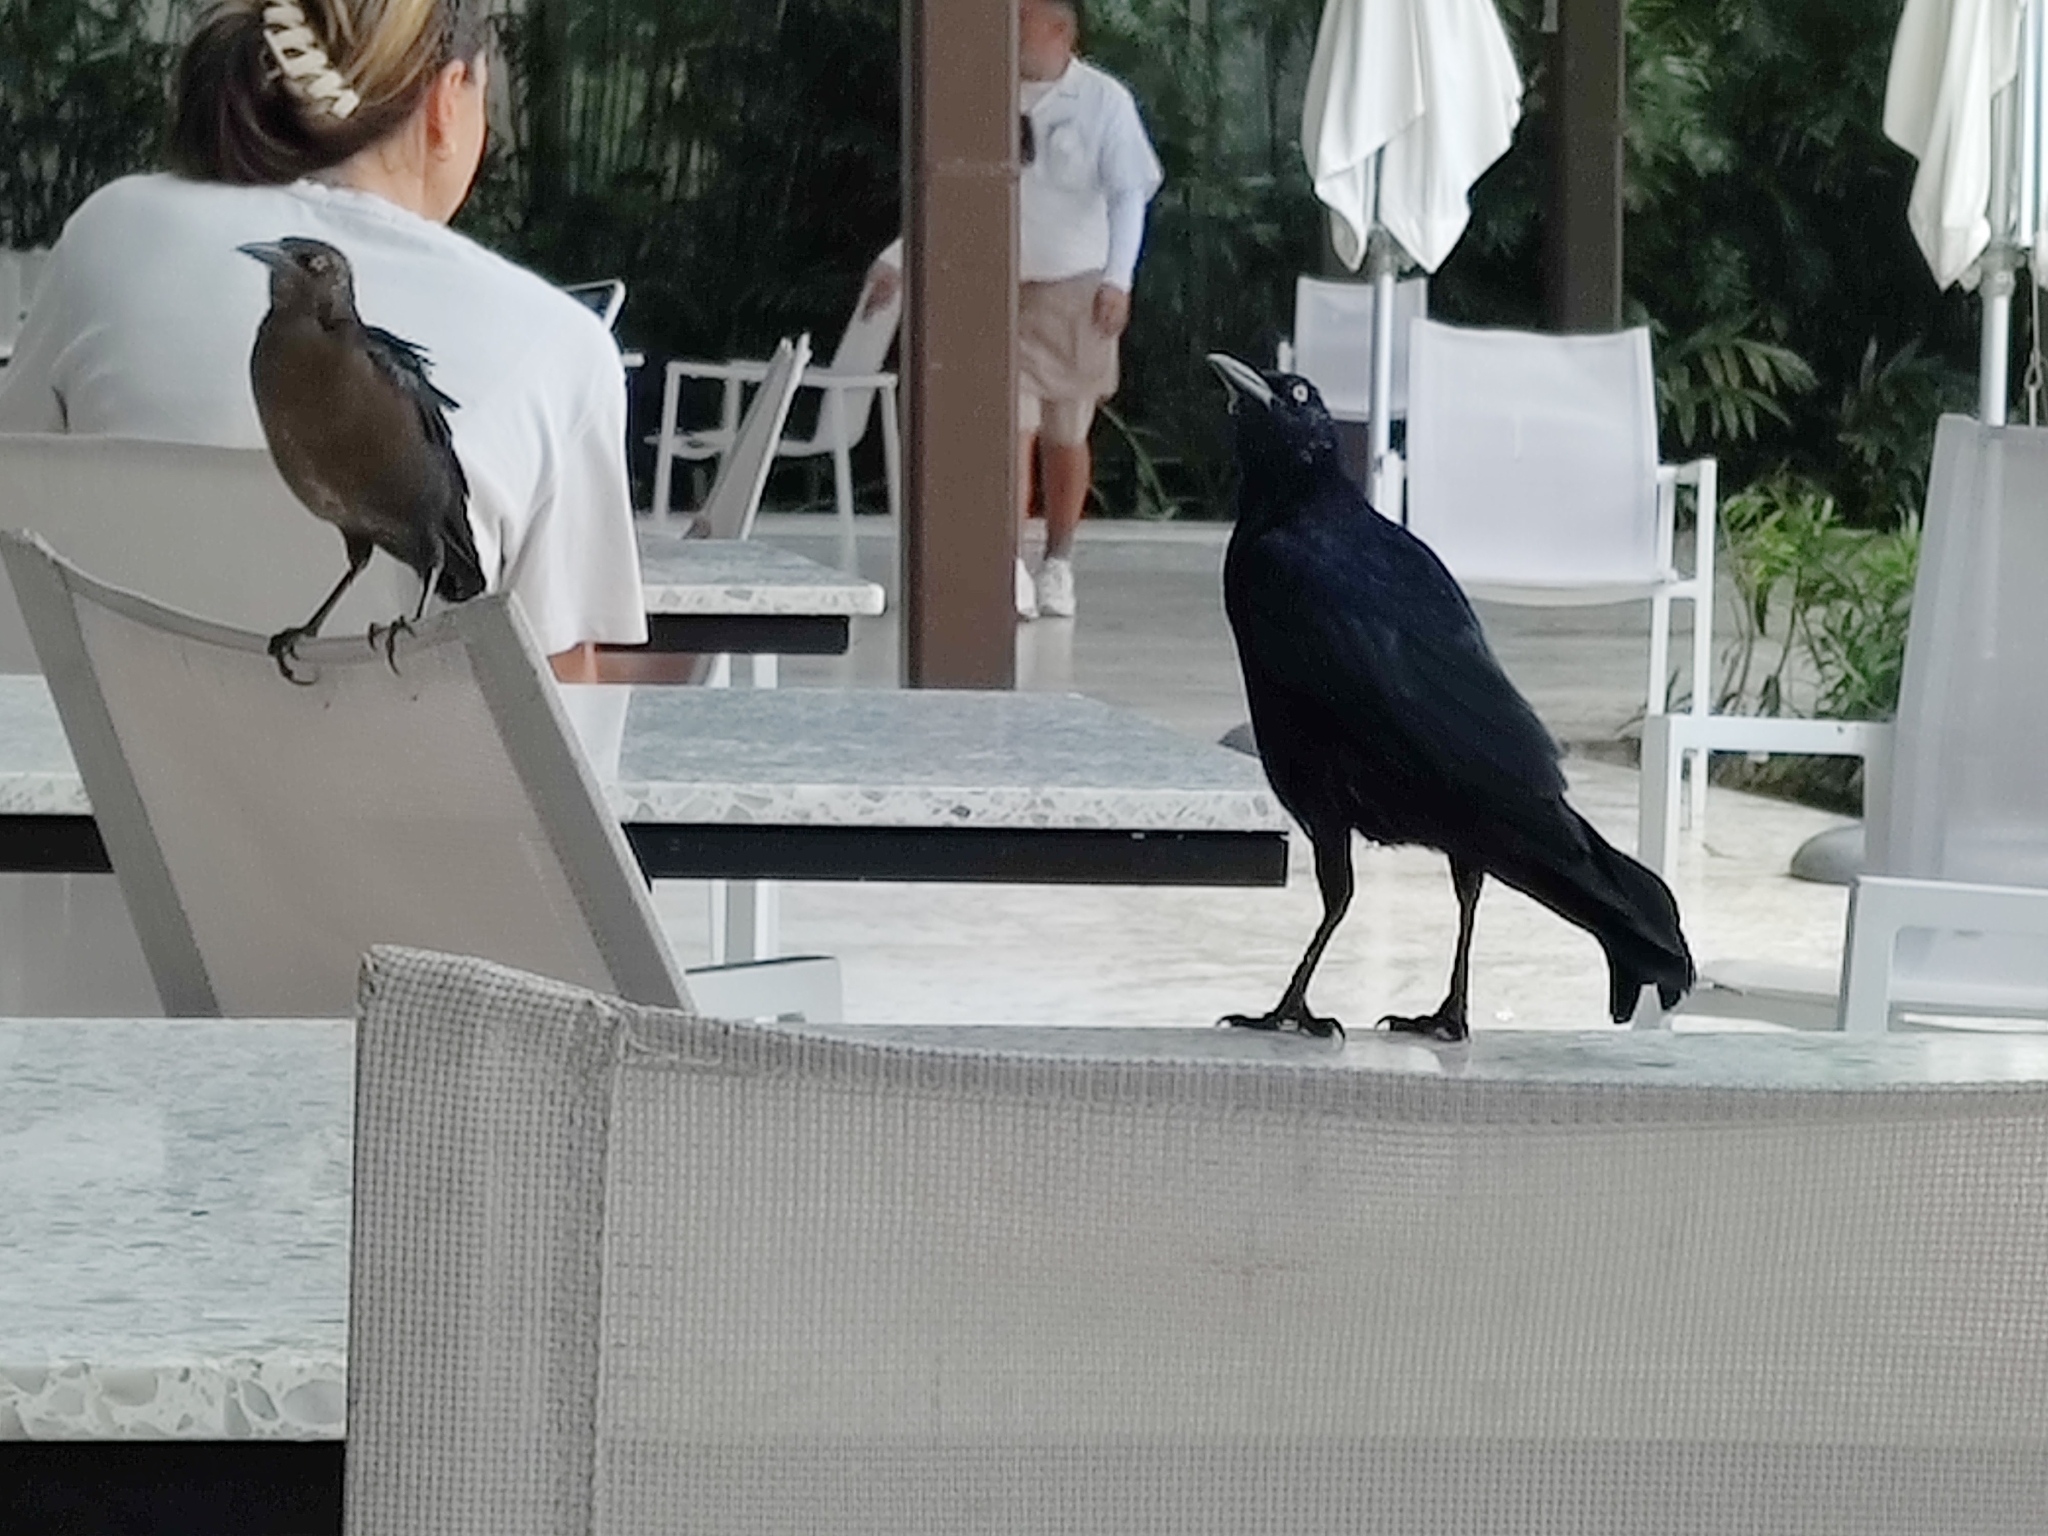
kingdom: Animalia
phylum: Chordata
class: Aves
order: Passeriformes
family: Icteridae
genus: Quiscalus
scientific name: Quiscalus mexicanus
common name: Great-tailed grackle
